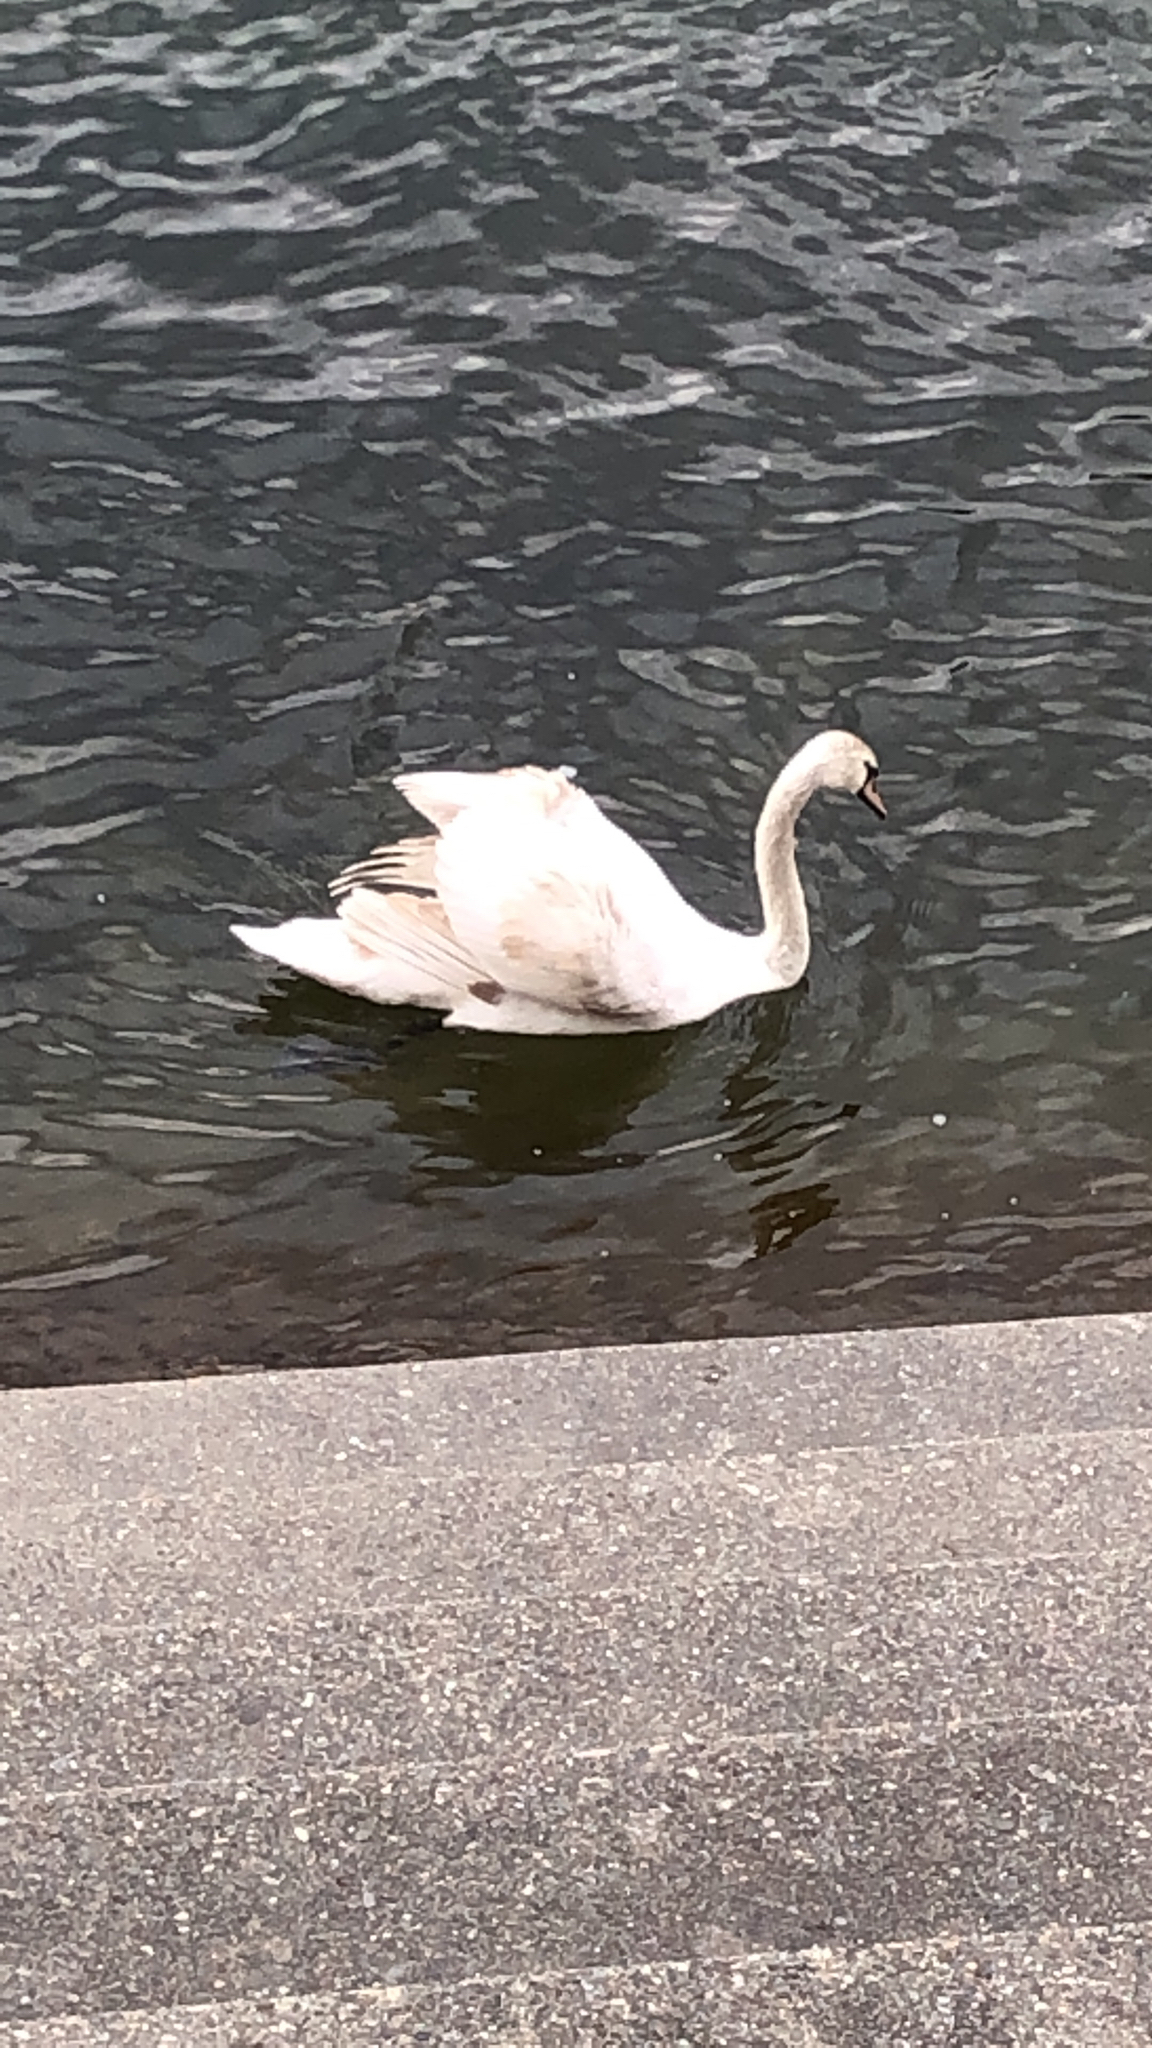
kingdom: Animalia
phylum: Chordata
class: Aves
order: Anseriformes
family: Anatidae
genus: Cygnus
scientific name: Cygnus olor
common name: Mute swan
